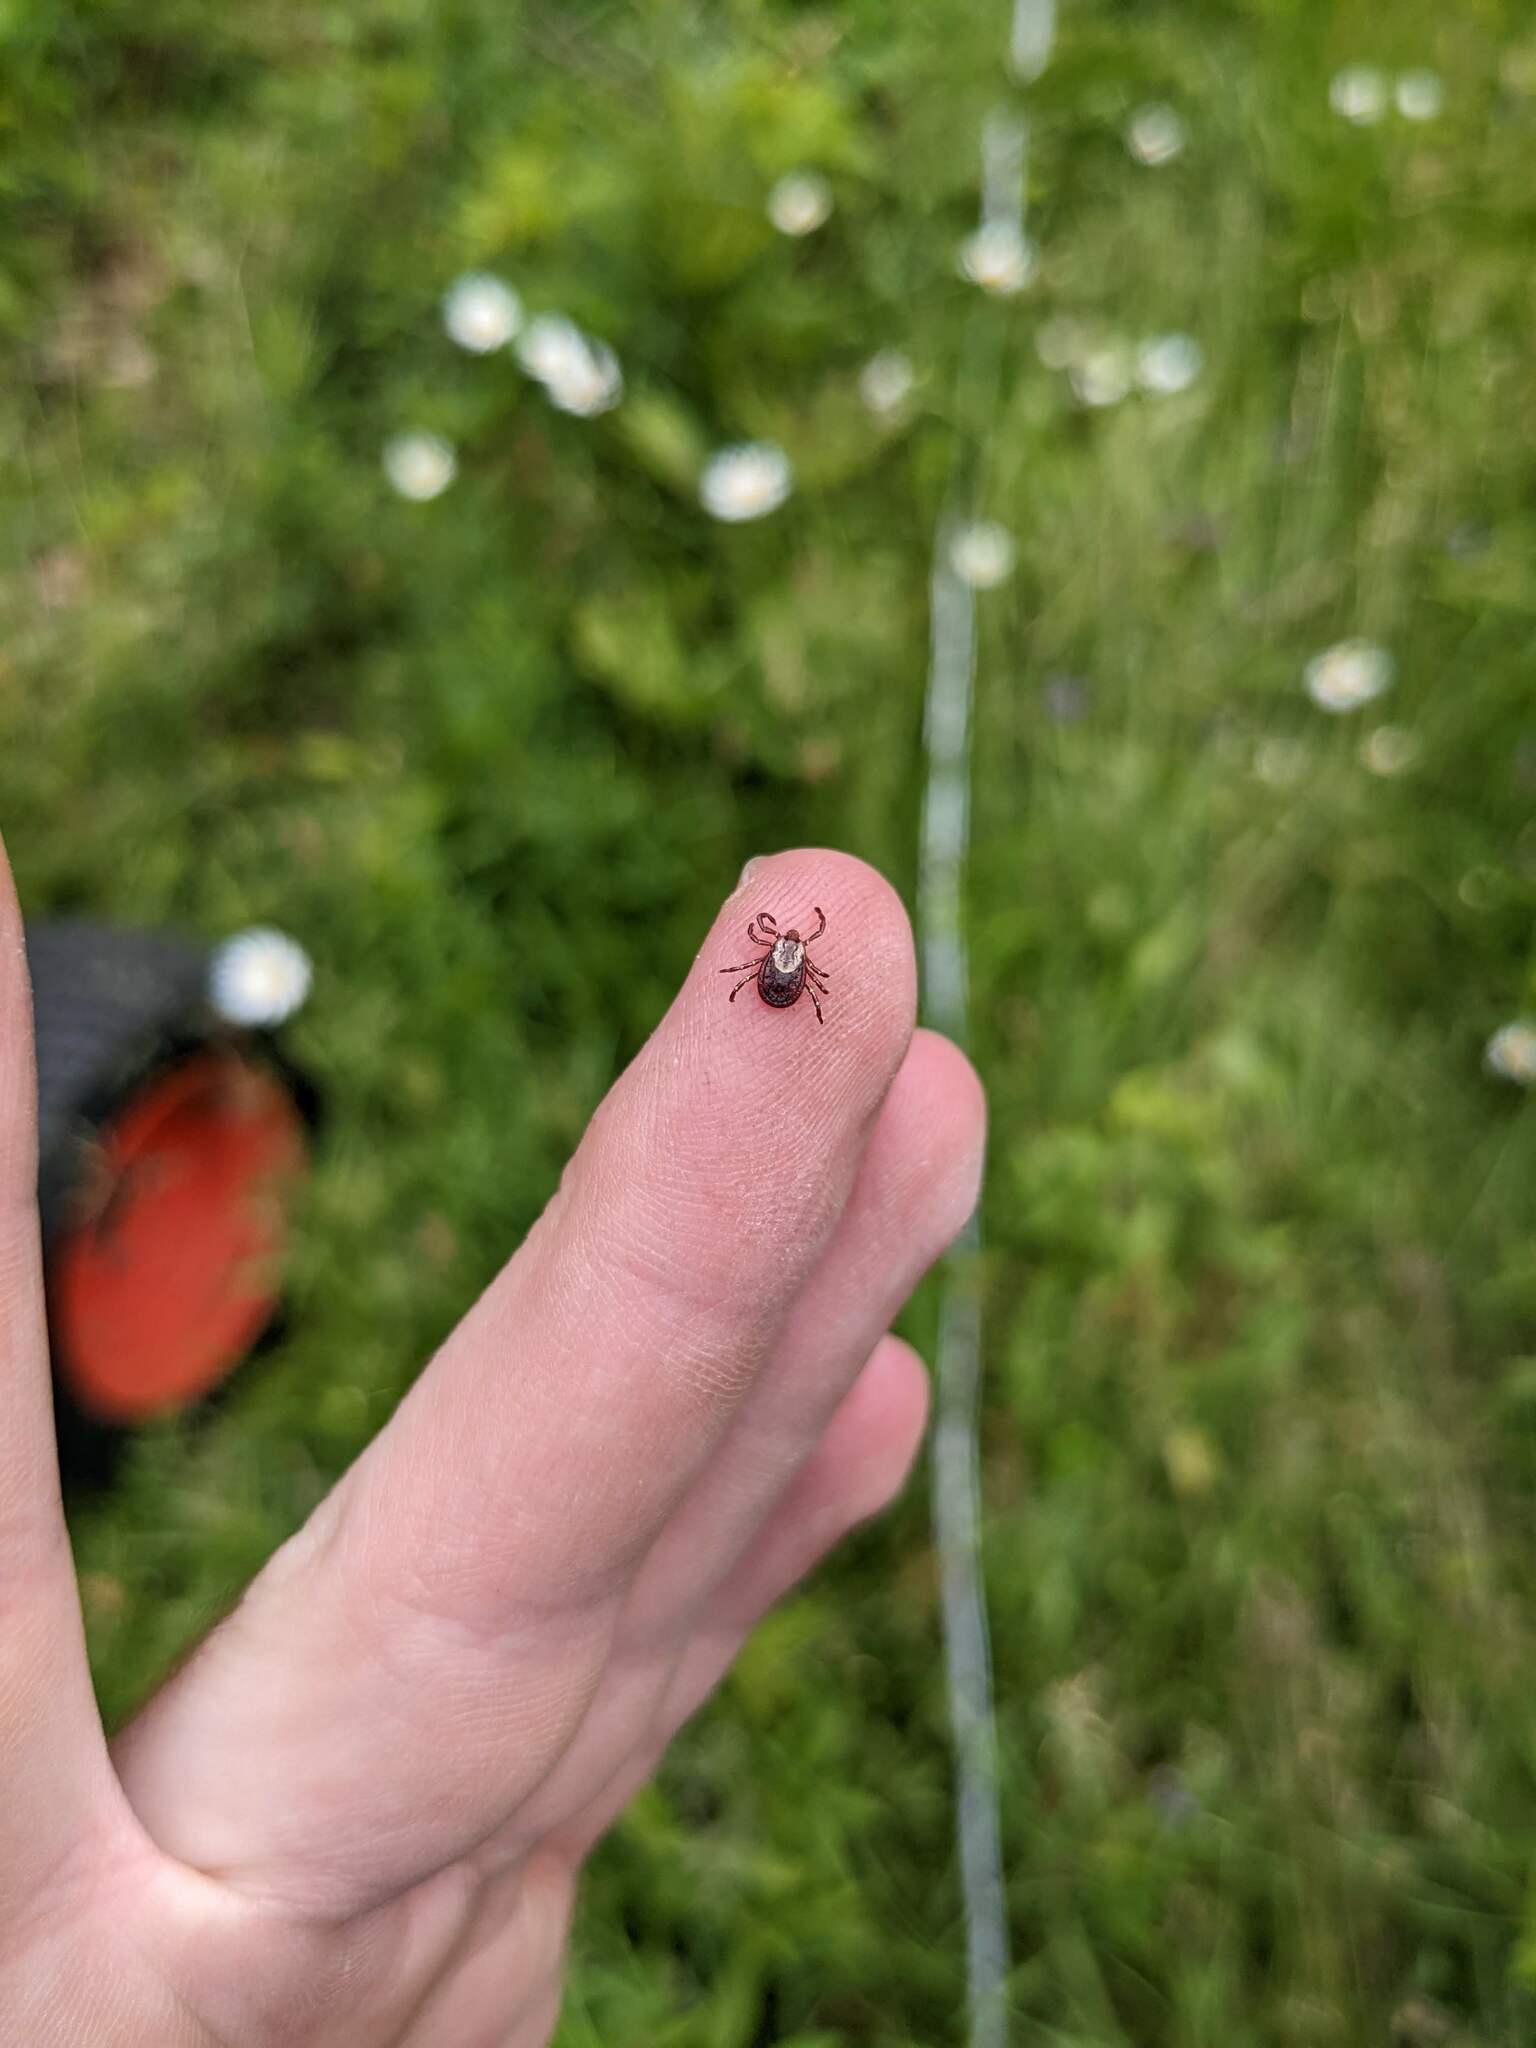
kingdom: Animalia
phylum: Arthropoda
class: Arachnida
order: Ixodida
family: Ixodidae
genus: Dermacentor
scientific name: Dermacentor variabilis
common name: American dog tick
